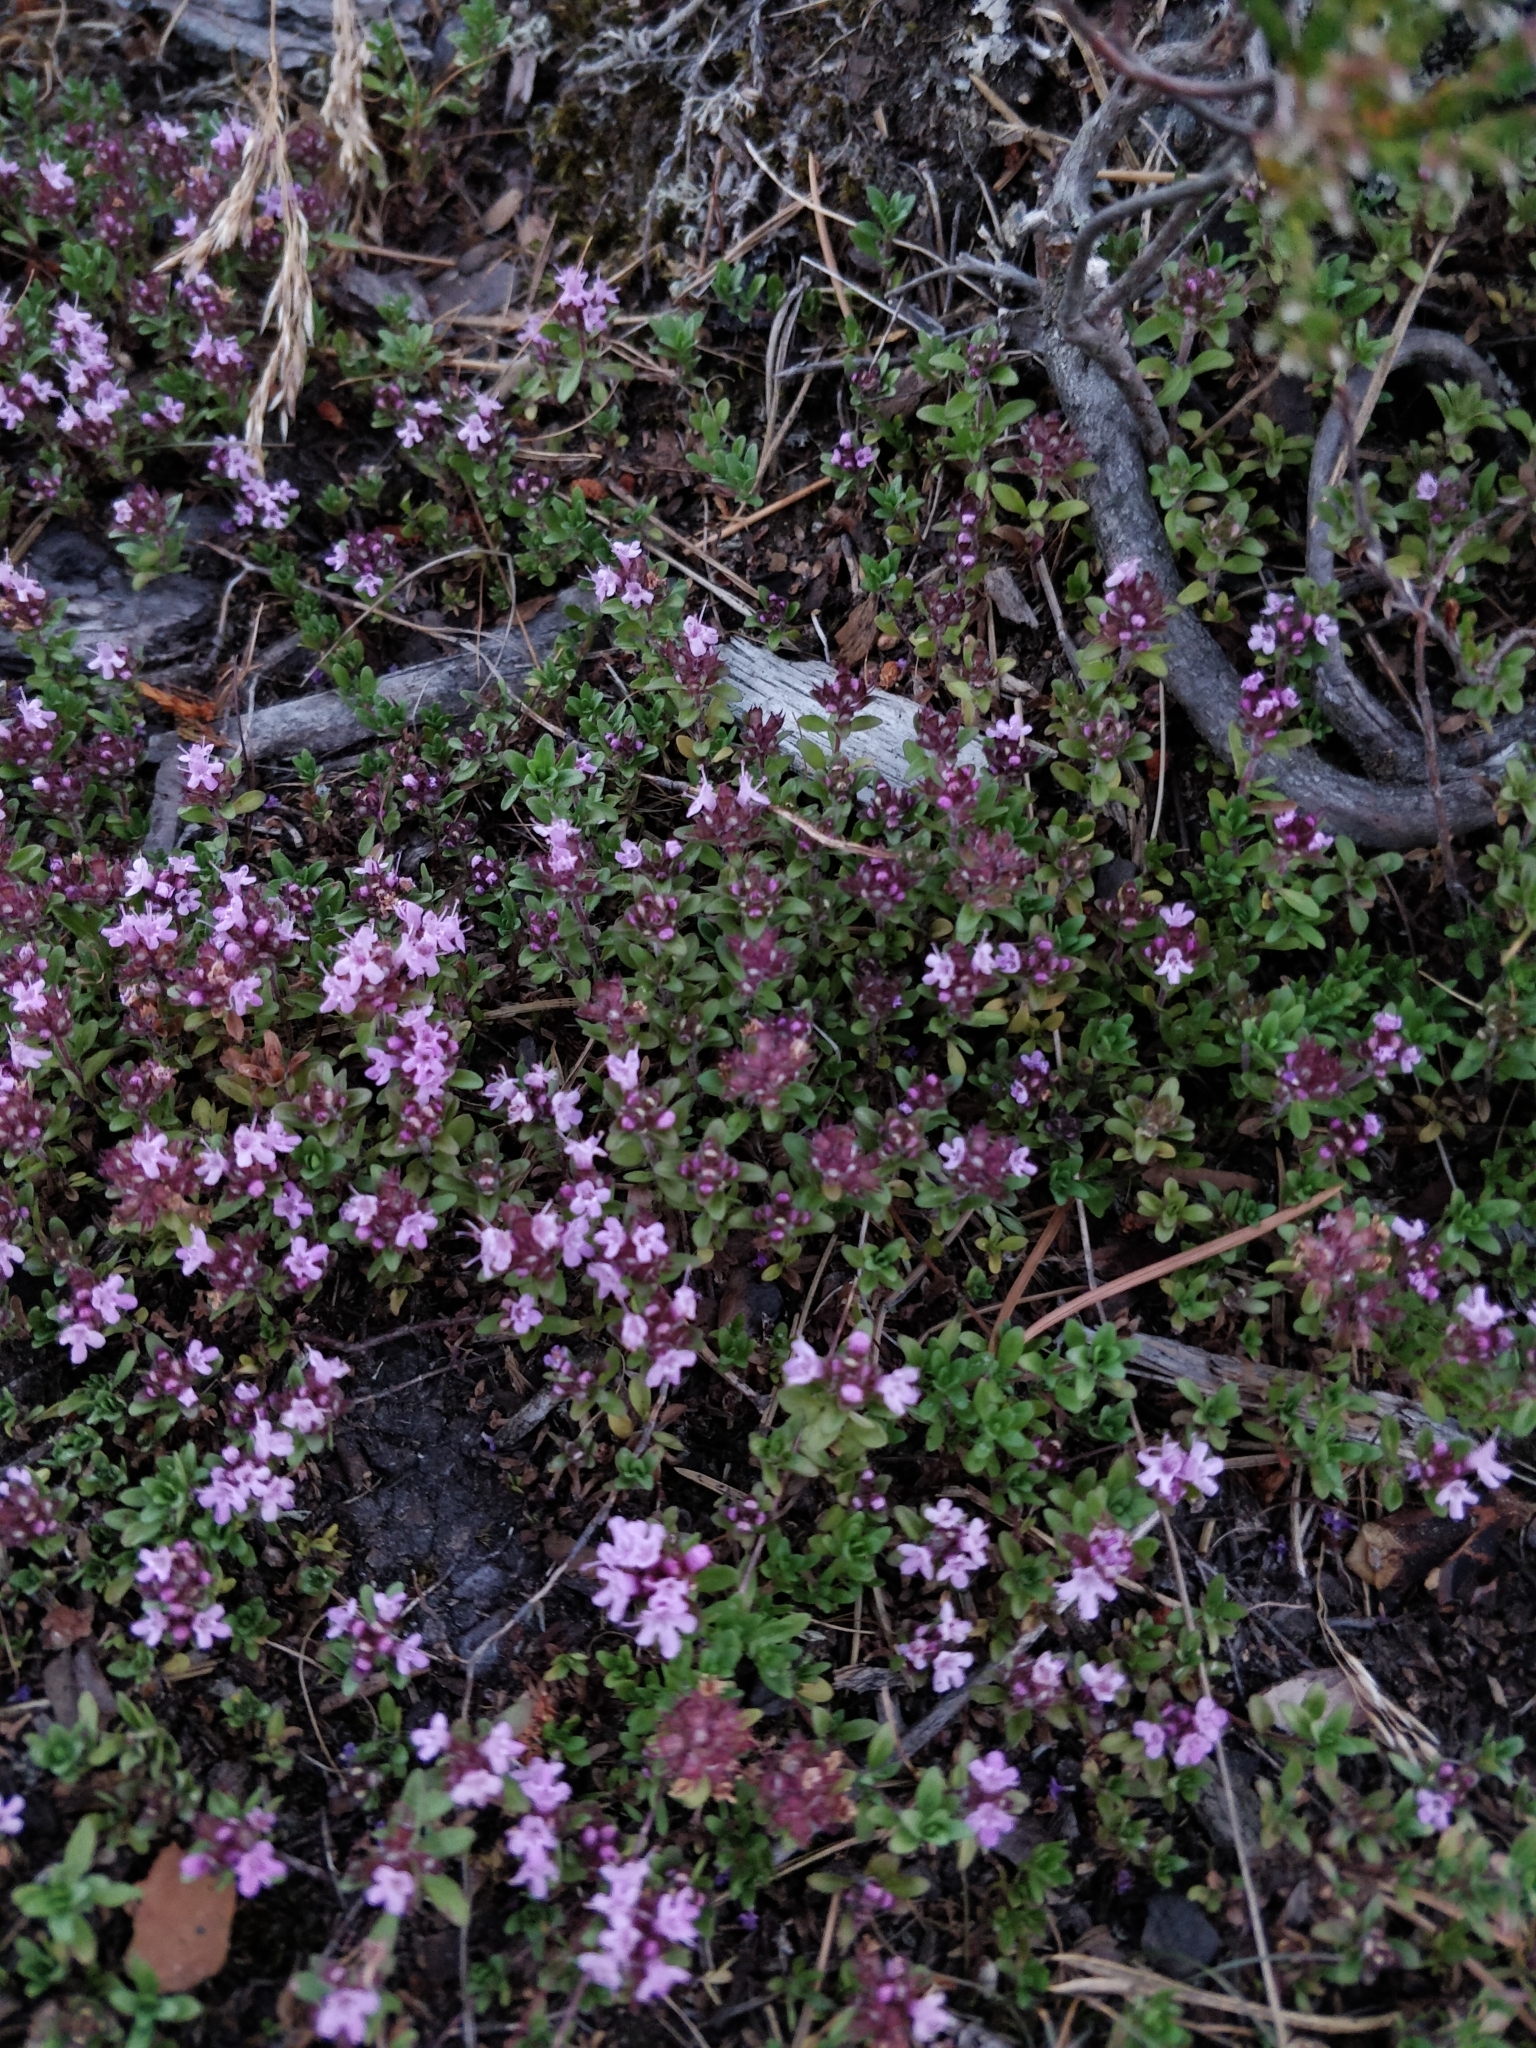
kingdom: Plantae
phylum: Tracheophyta
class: Magnoliopsida
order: Lamiales
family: Lamiaceae
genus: Thymus
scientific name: Thymus serpyllum
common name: Breckland thyme
